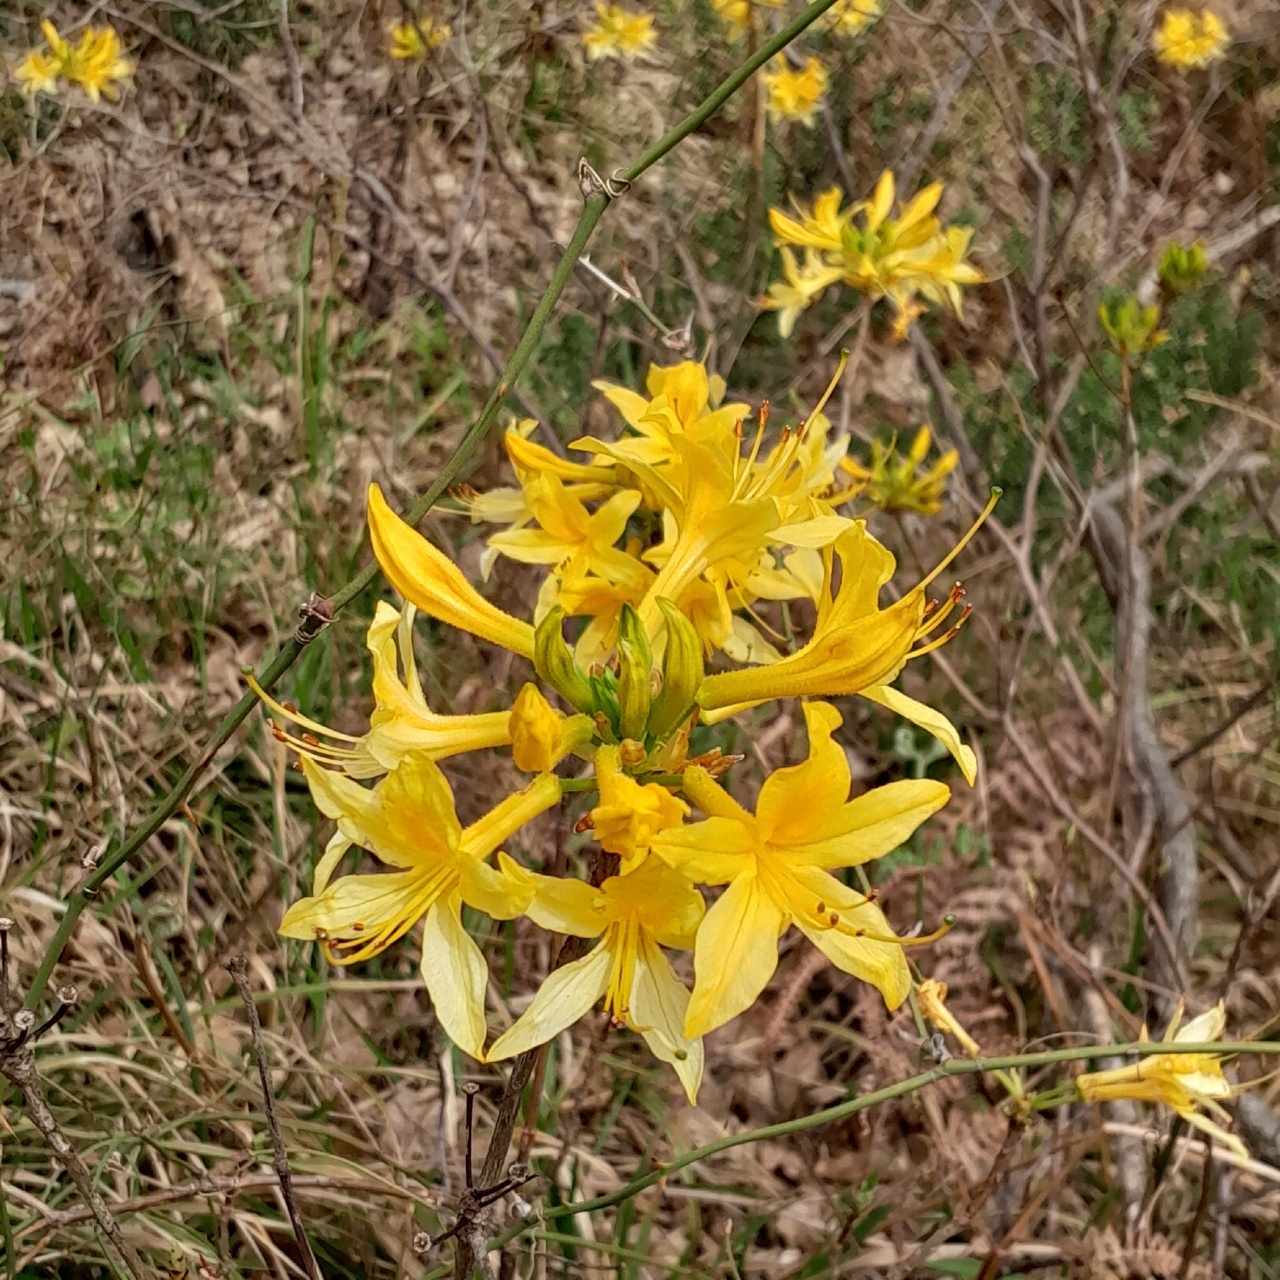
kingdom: Plantae
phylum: Tracheophyta
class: Magnoliopsida
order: Ericales
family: Ericaceae
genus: Rhododendron
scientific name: Rhododendron luteum
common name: Yellow azalea
